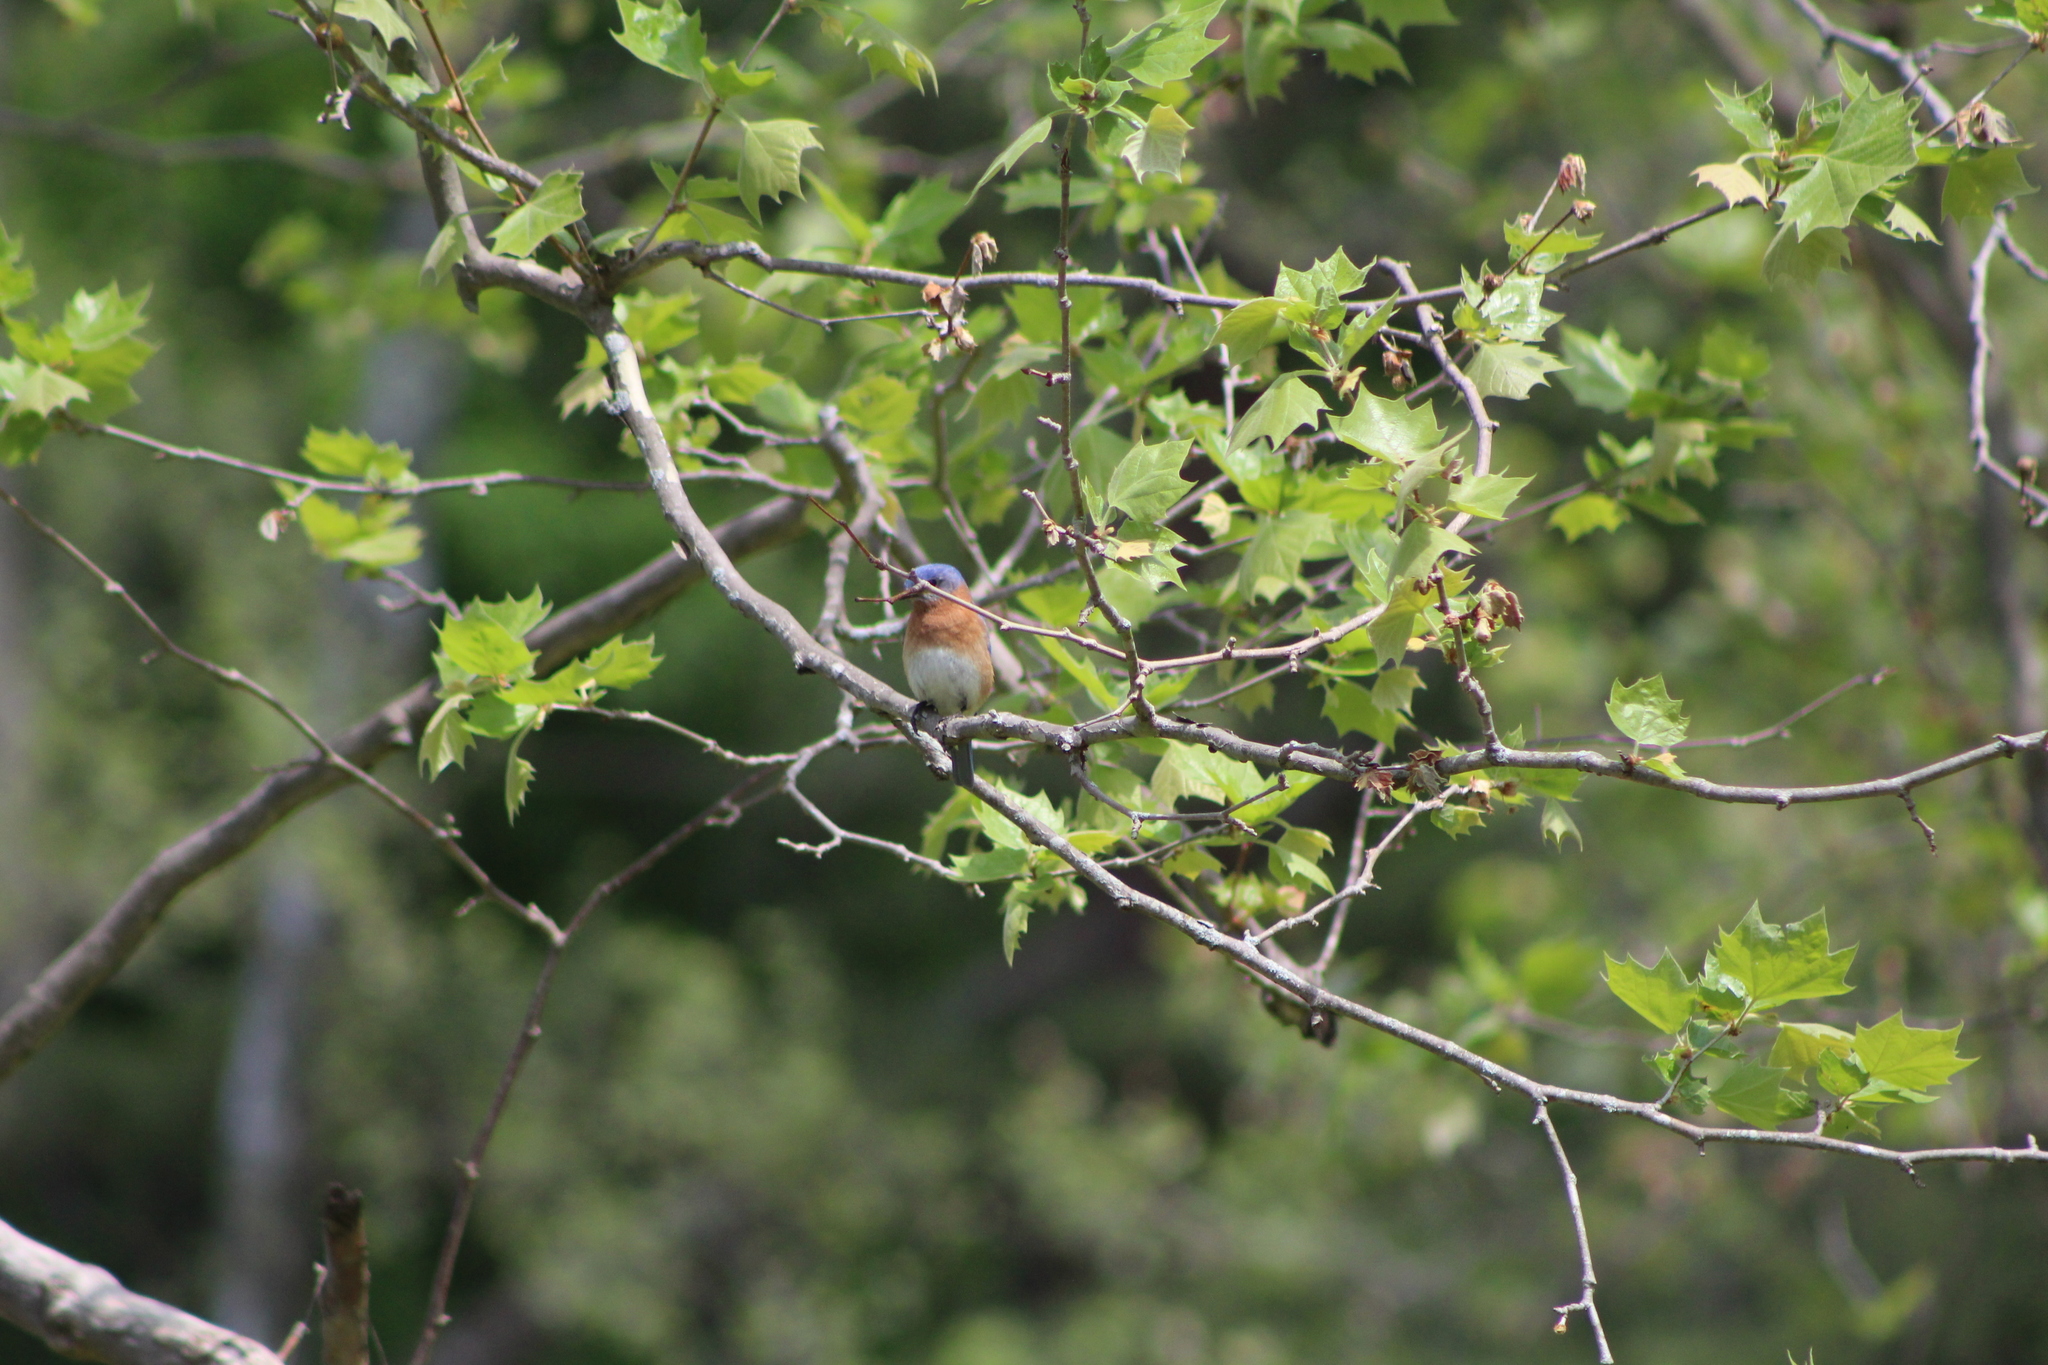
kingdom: Animalia
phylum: Chordata
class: Aves
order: Passeriformes
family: Turdidae
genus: Sialia
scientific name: Sialia sialis
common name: Eastern bluebird
